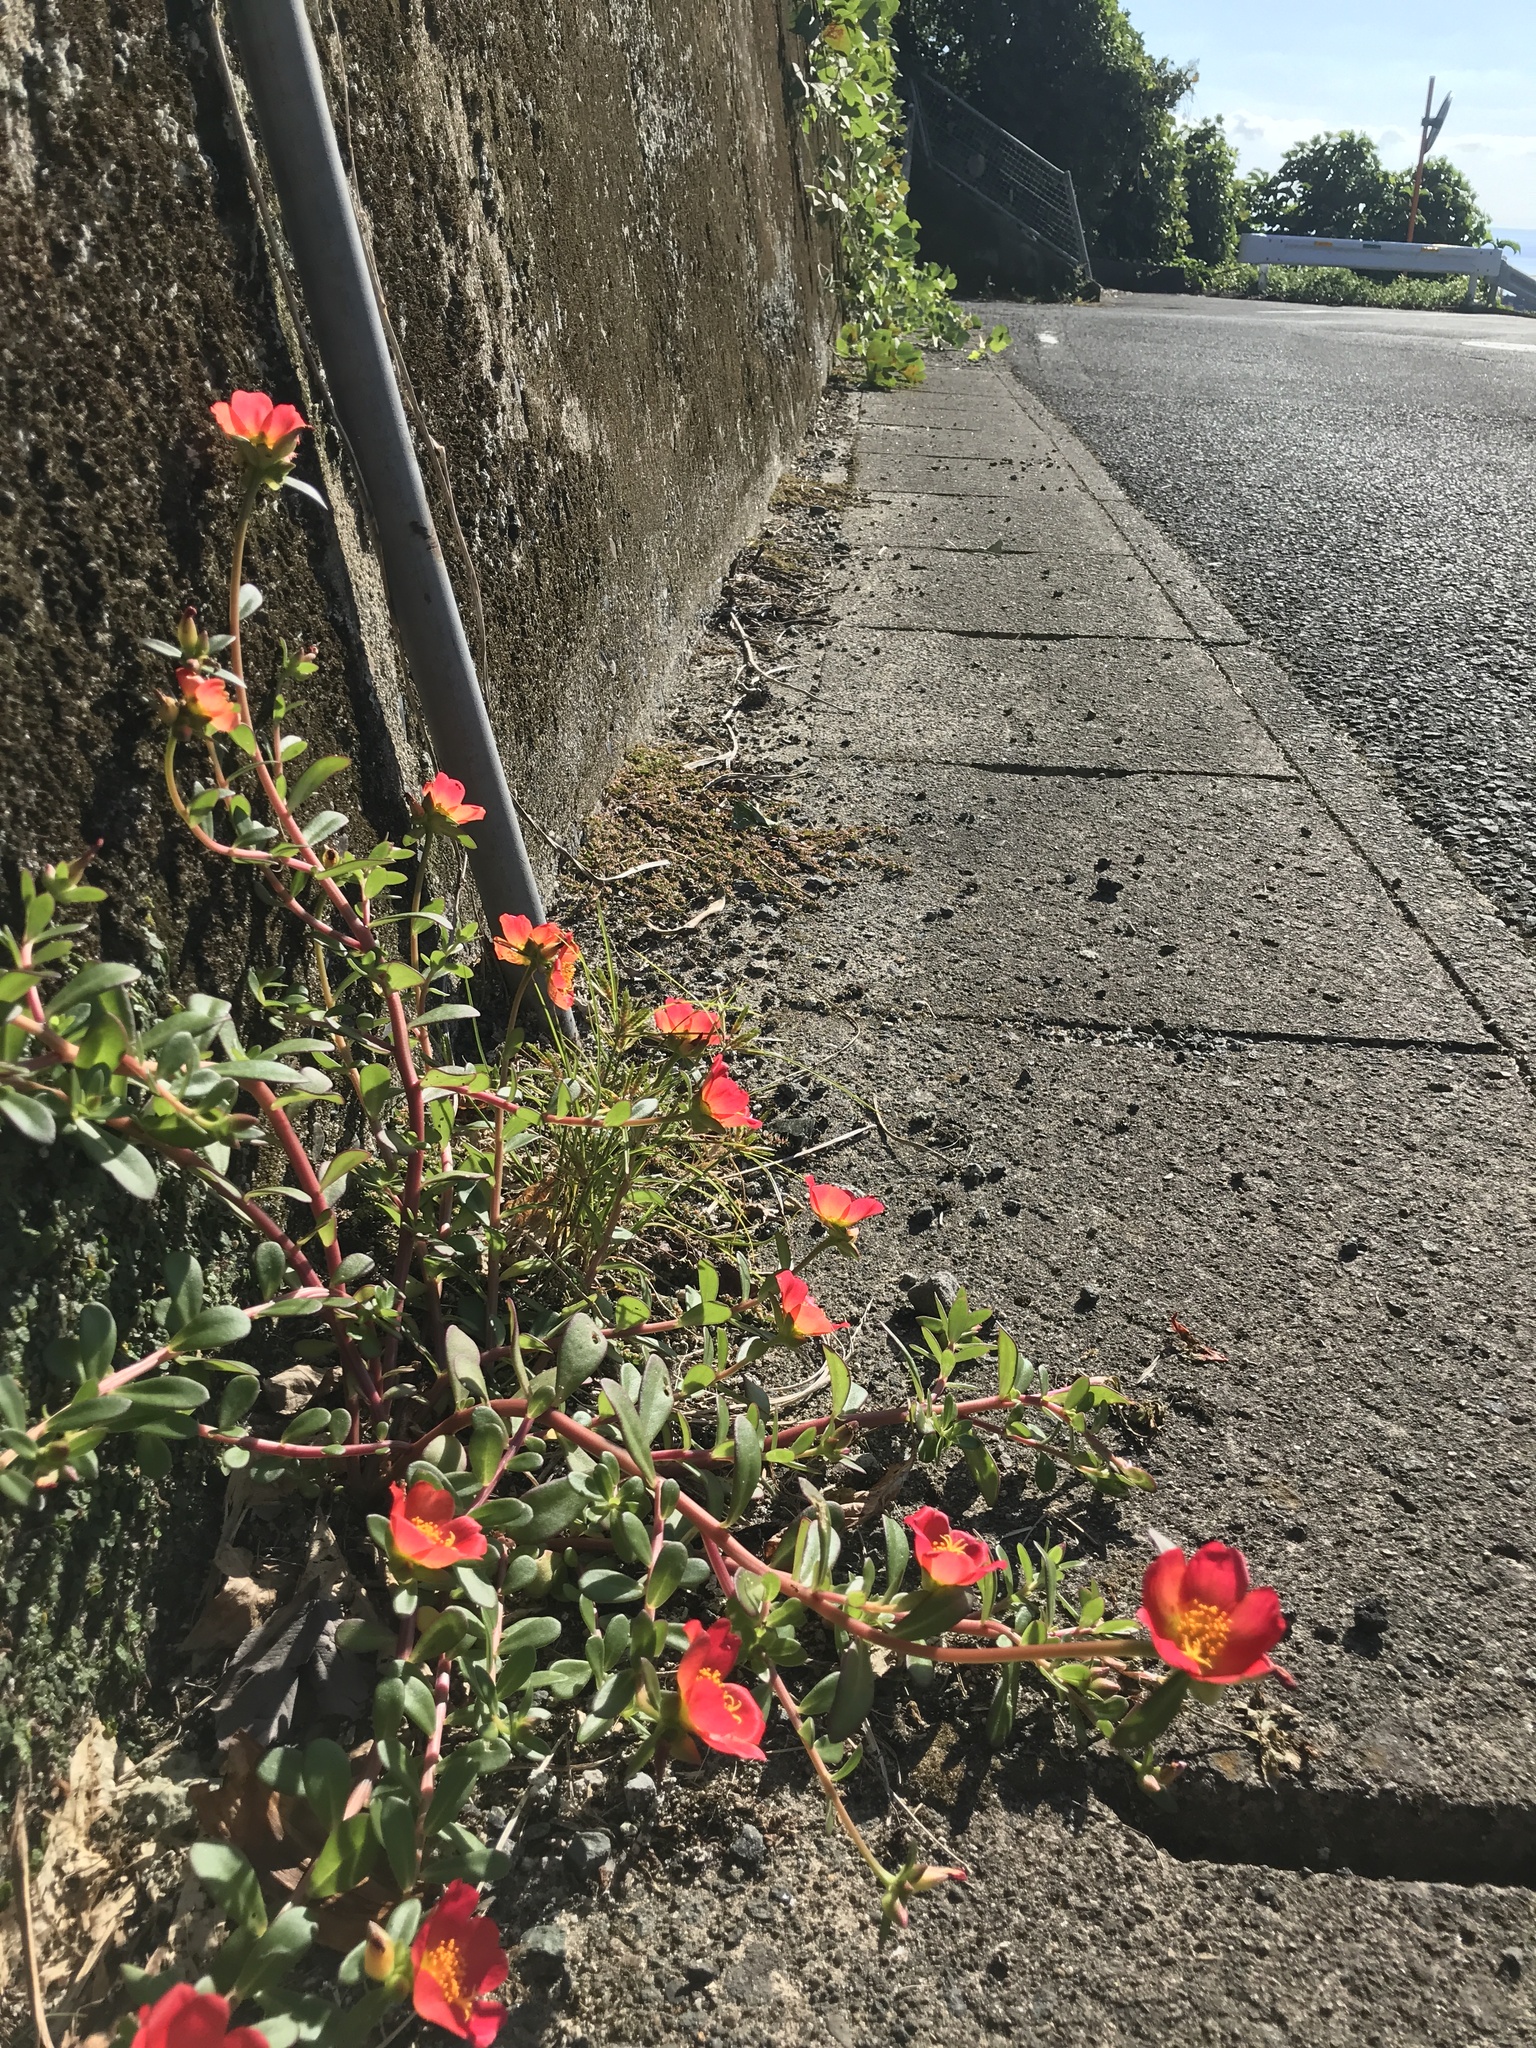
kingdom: Plantae
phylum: Tracheophyta
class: Magnoliopsida
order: Caryophyllales
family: Portulacaceae
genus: Portulaca
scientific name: Portulaca umbraticola
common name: Wingpod purslane
